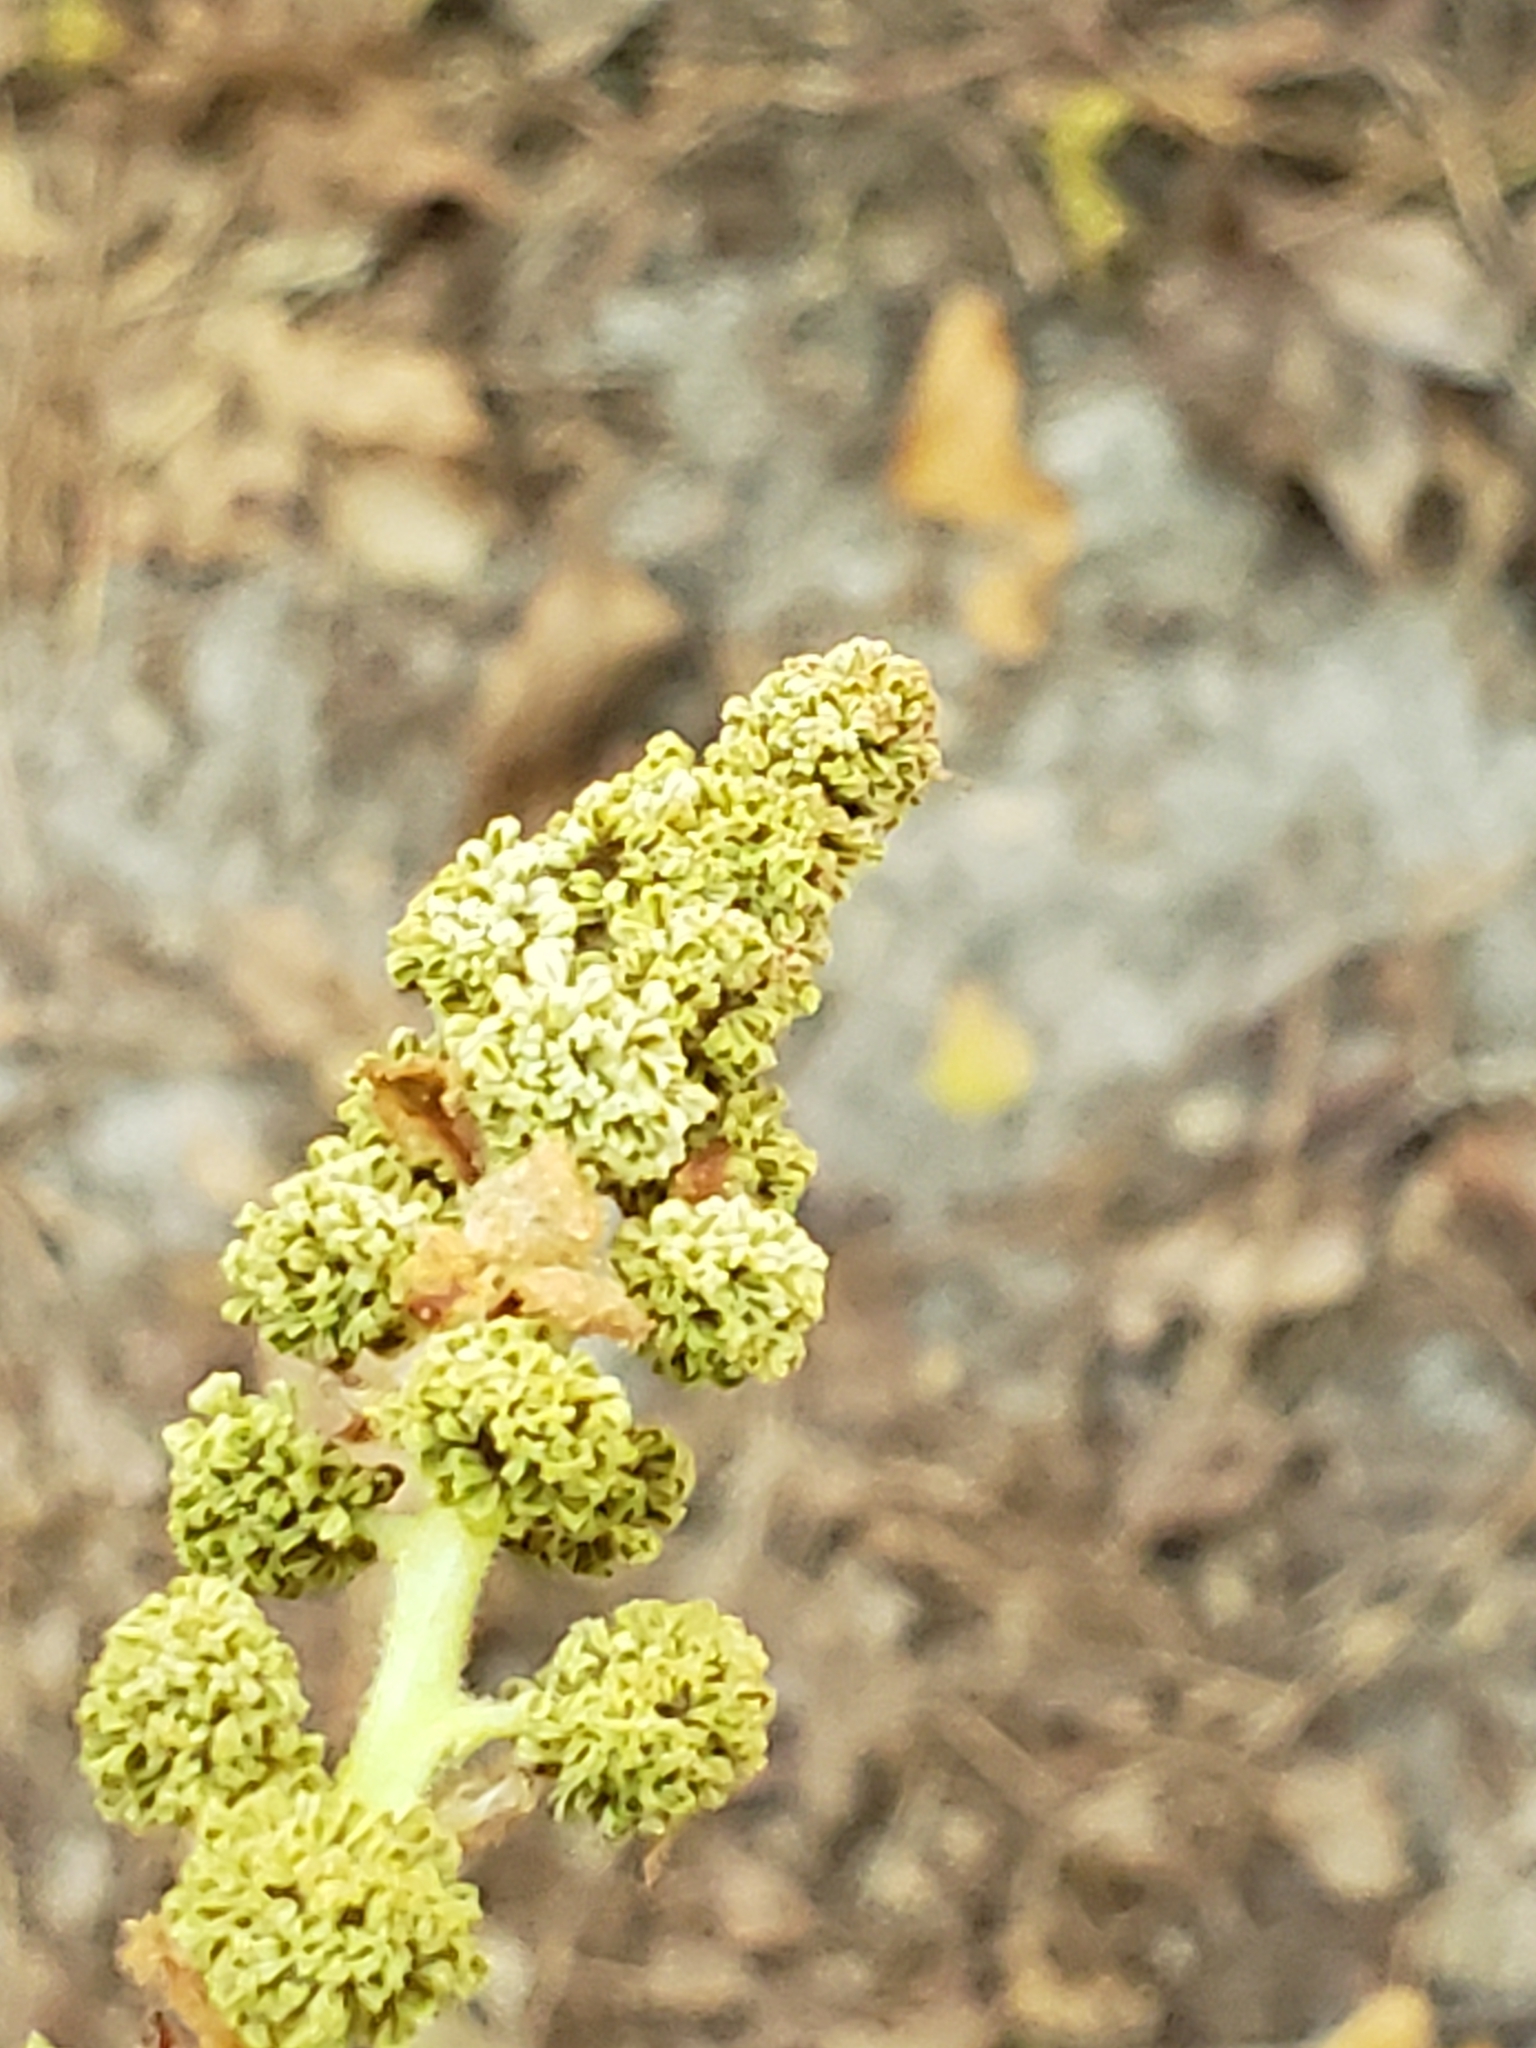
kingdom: Plantae
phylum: Tracheophyta
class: Magnoliopsida
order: Saxifragales
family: Altingiaceae
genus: Liquidambar
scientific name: Liquidambar styraciflua
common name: Sweet gum
